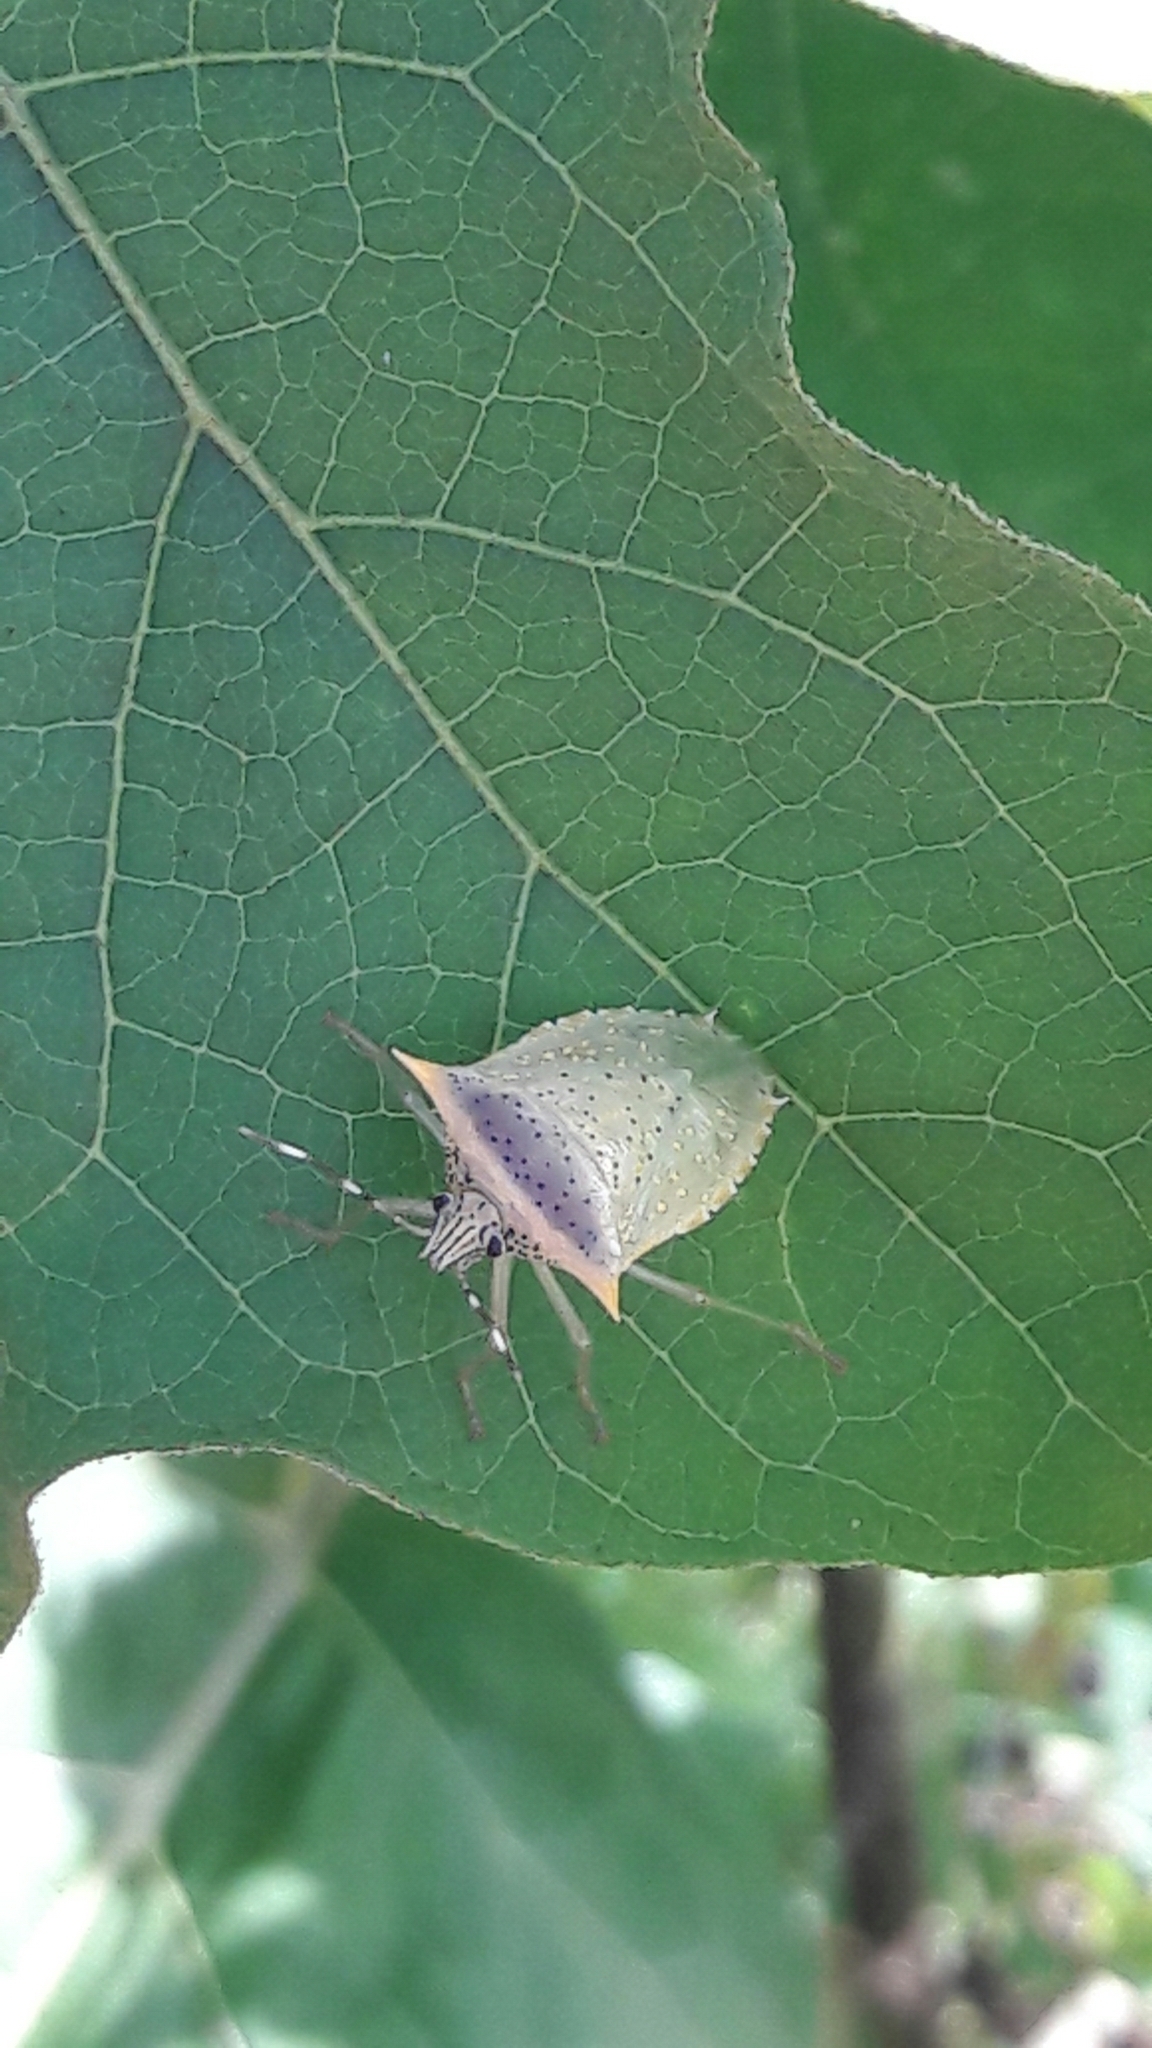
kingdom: Animalia
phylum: Arthropoda
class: Insecta
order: Hemiptera
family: Pentatomidae
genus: Arvelius
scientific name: Arvelius albopunctatus
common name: Tomato stink bug
